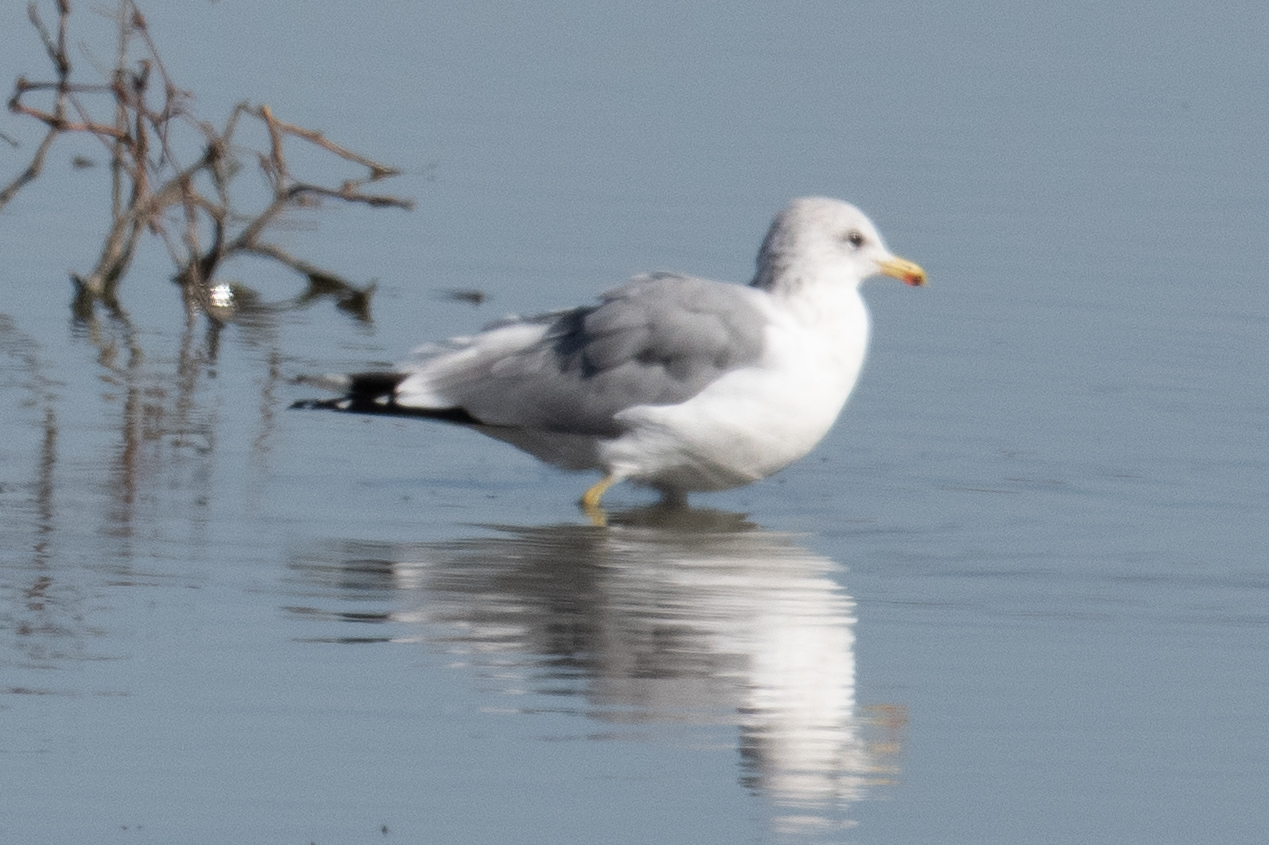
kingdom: Animalia
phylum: Chordata
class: Aves
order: Charadriiformes
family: Laridae
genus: Larus
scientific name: Larus californicus
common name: California gull
